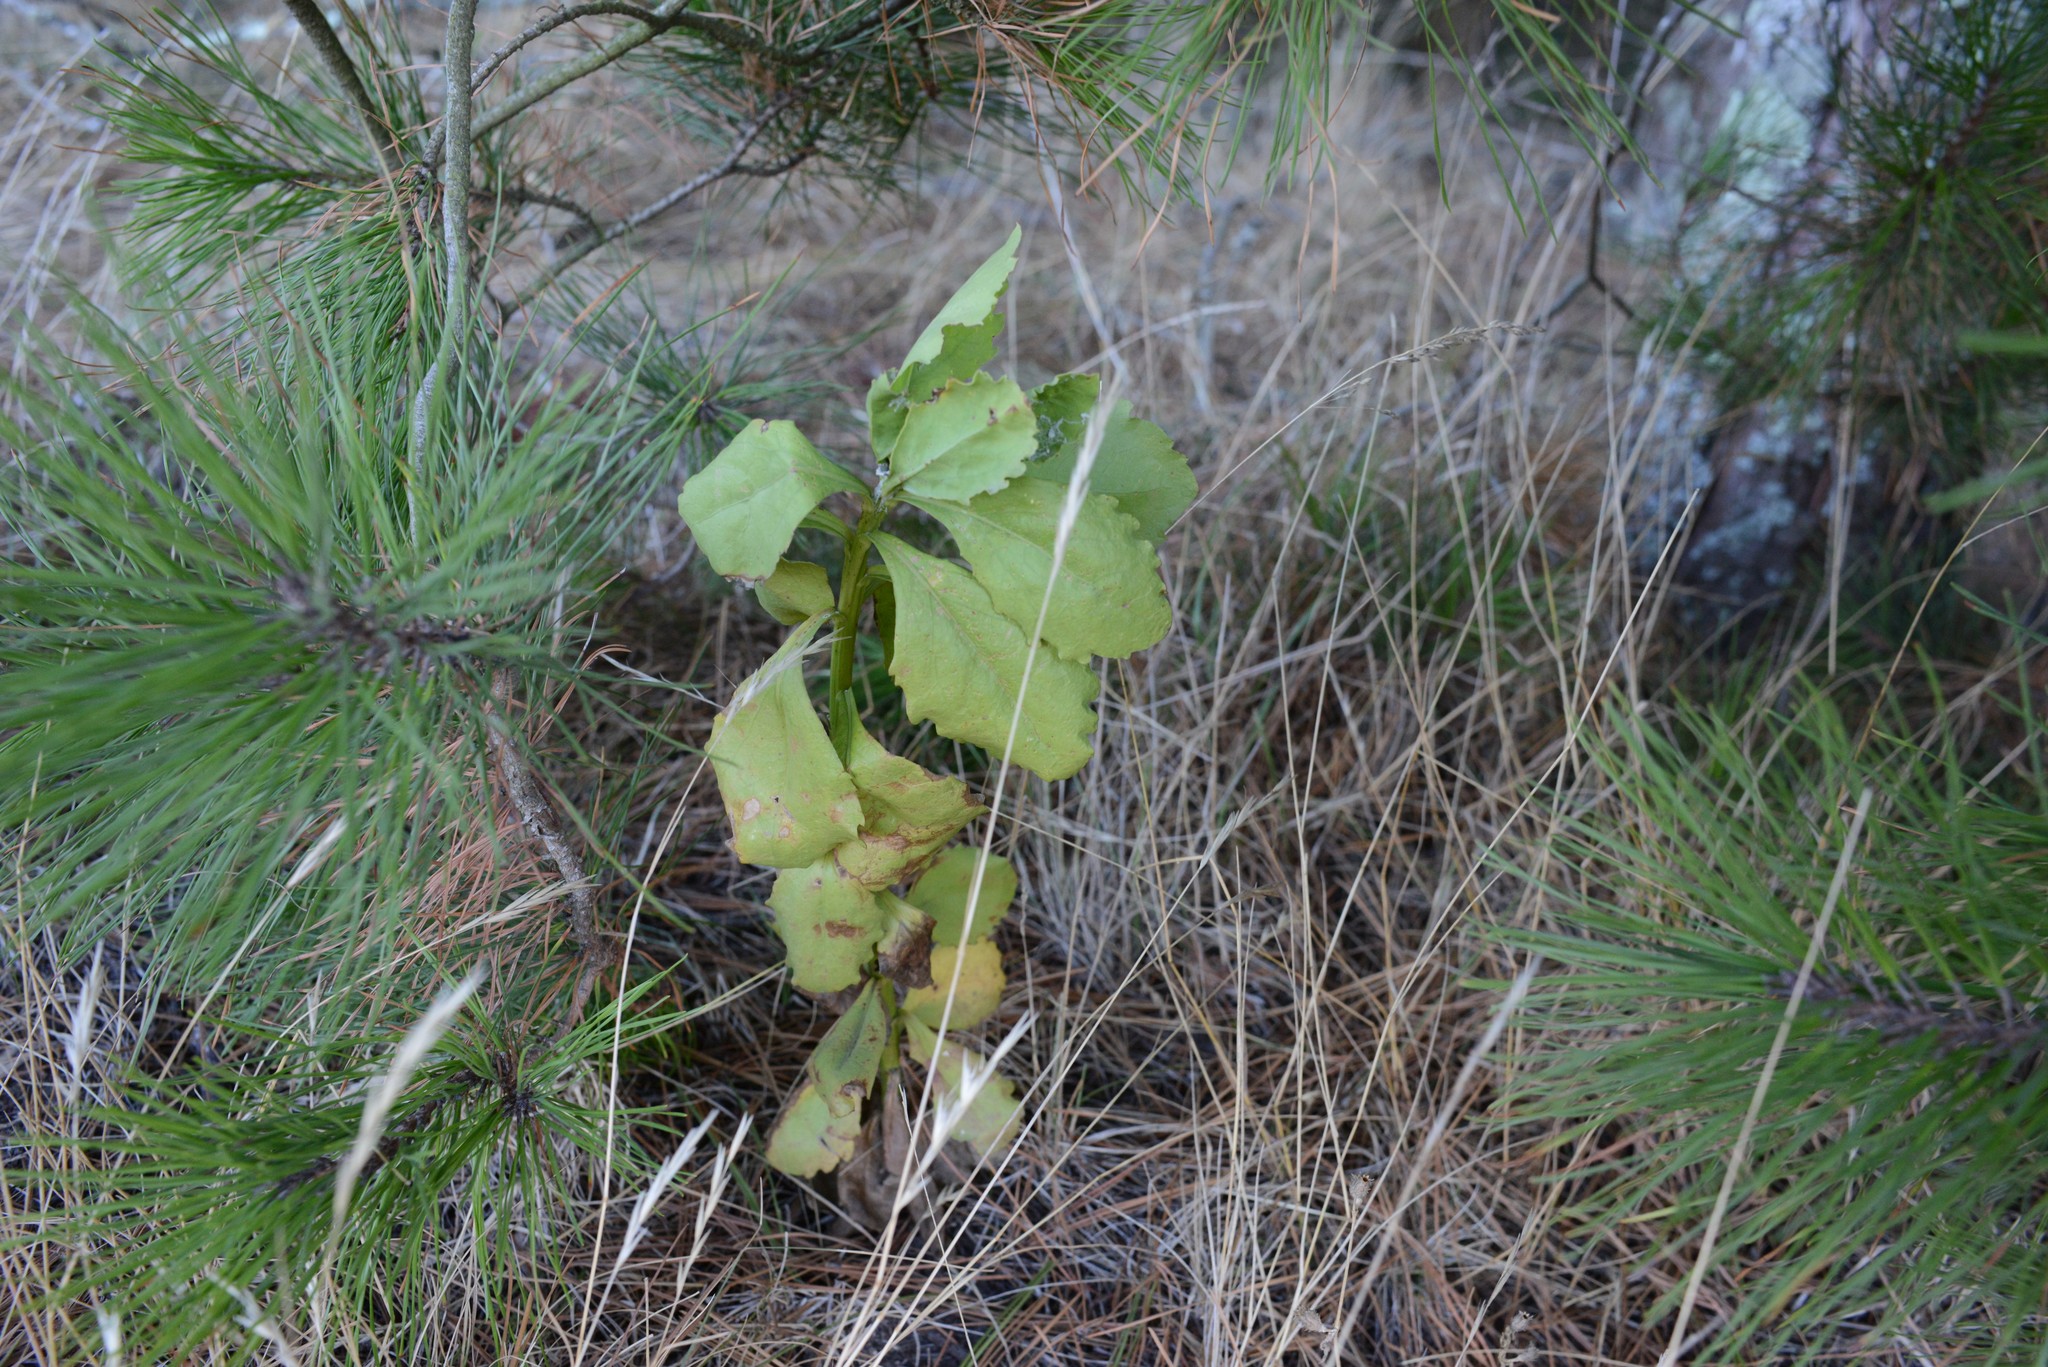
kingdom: Plantae
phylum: Tracheophyta
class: Magnoliopsida
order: Asterales
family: Asteraceae
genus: Osteospermum
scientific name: Osteospermum moniliferum
